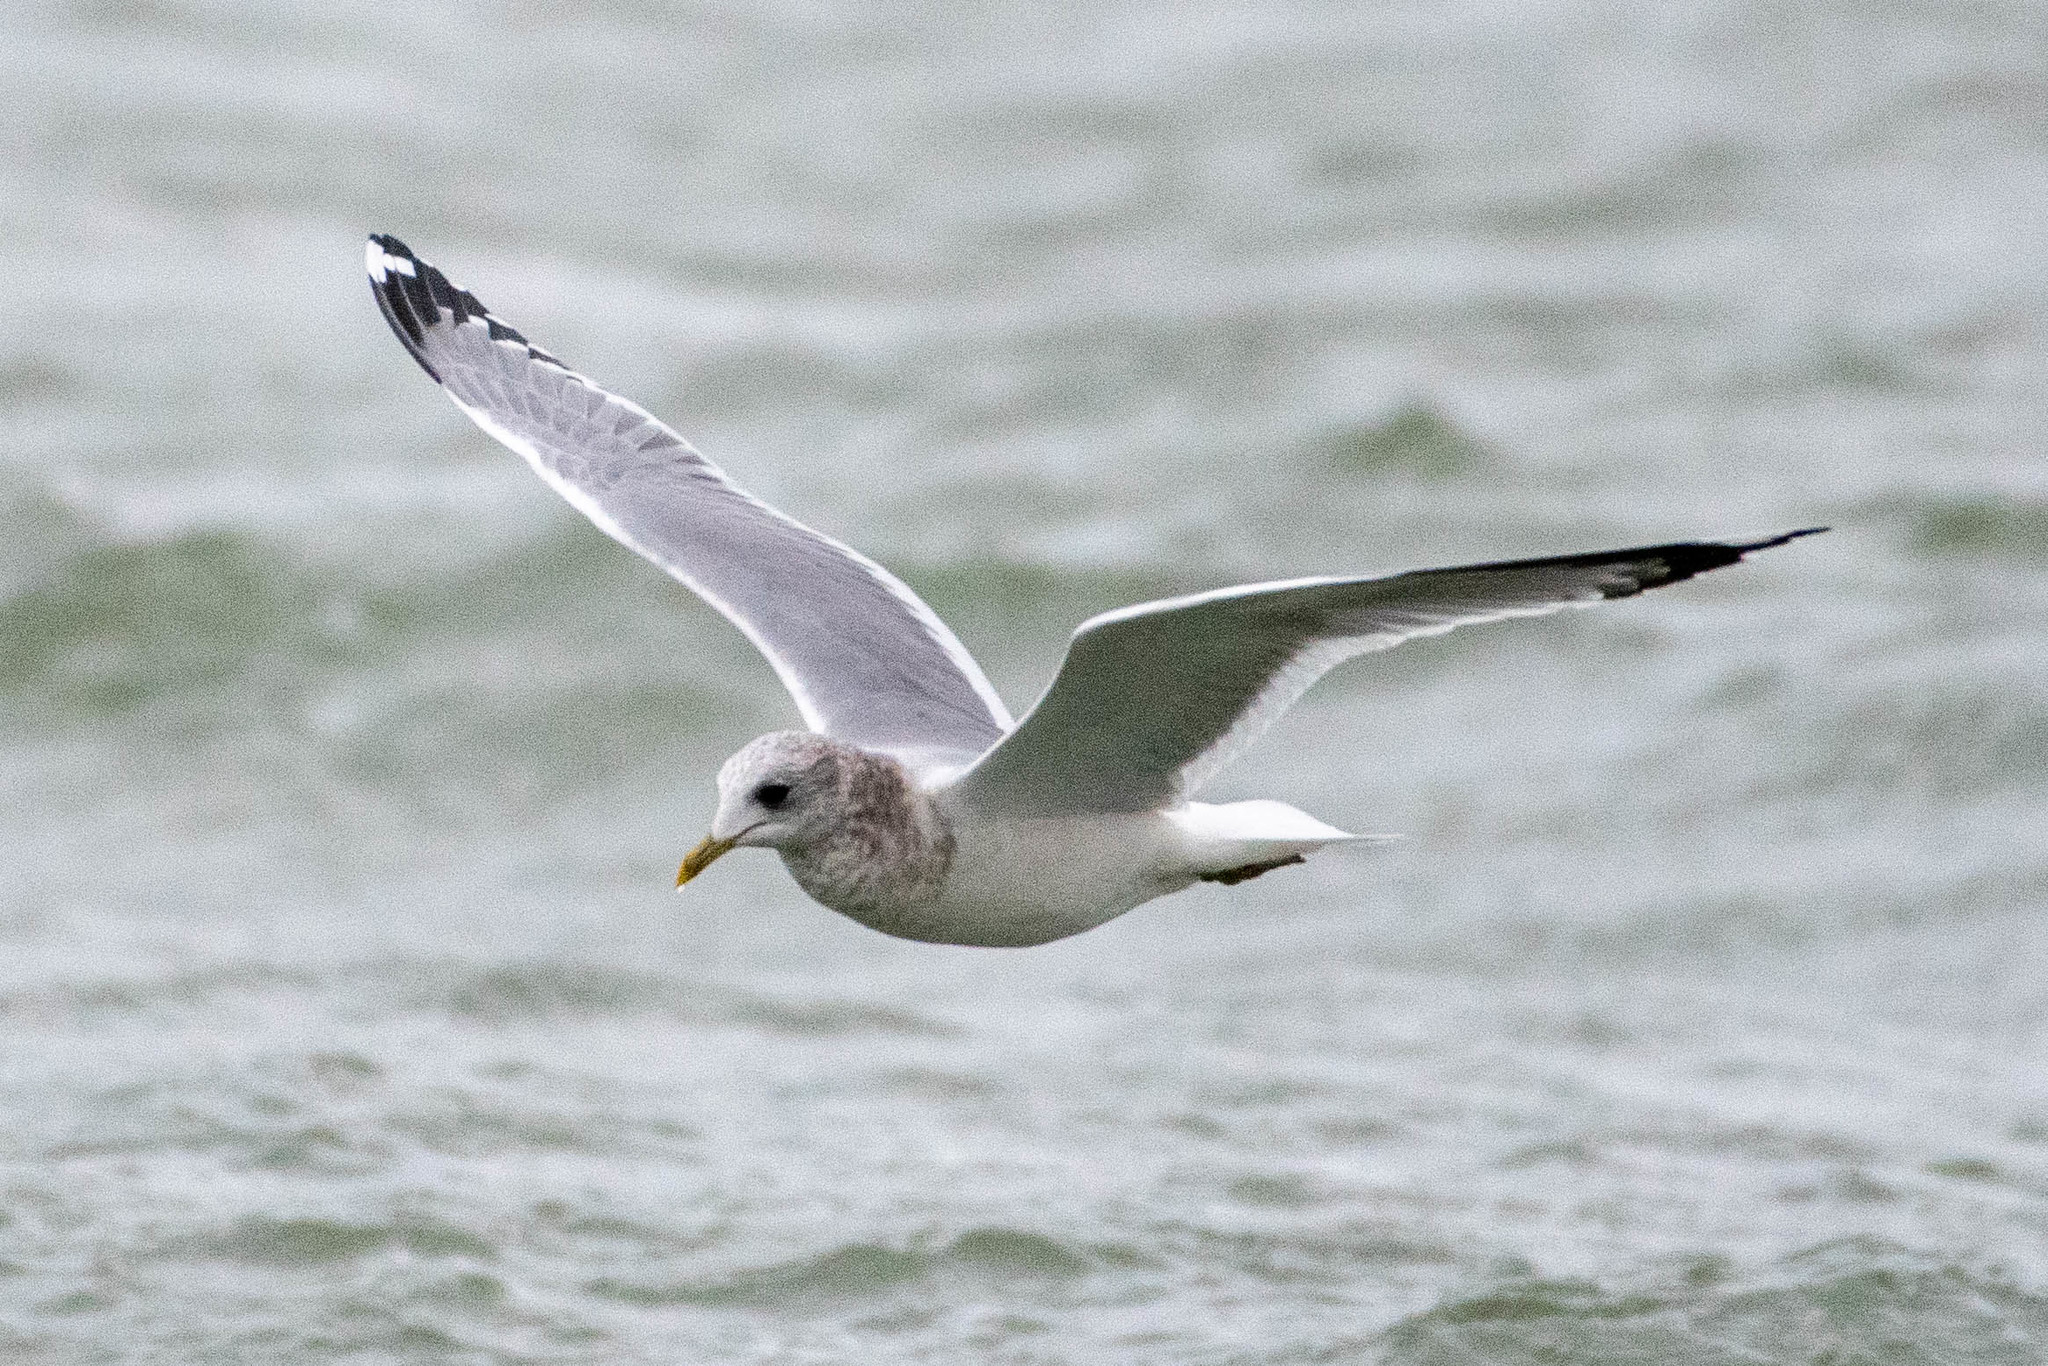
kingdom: Animalia
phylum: Chordata
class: Aves
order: Charadriiformes
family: Laridae
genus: Larus
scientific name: Larus brachyrhynchus
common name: Short-billed gull
